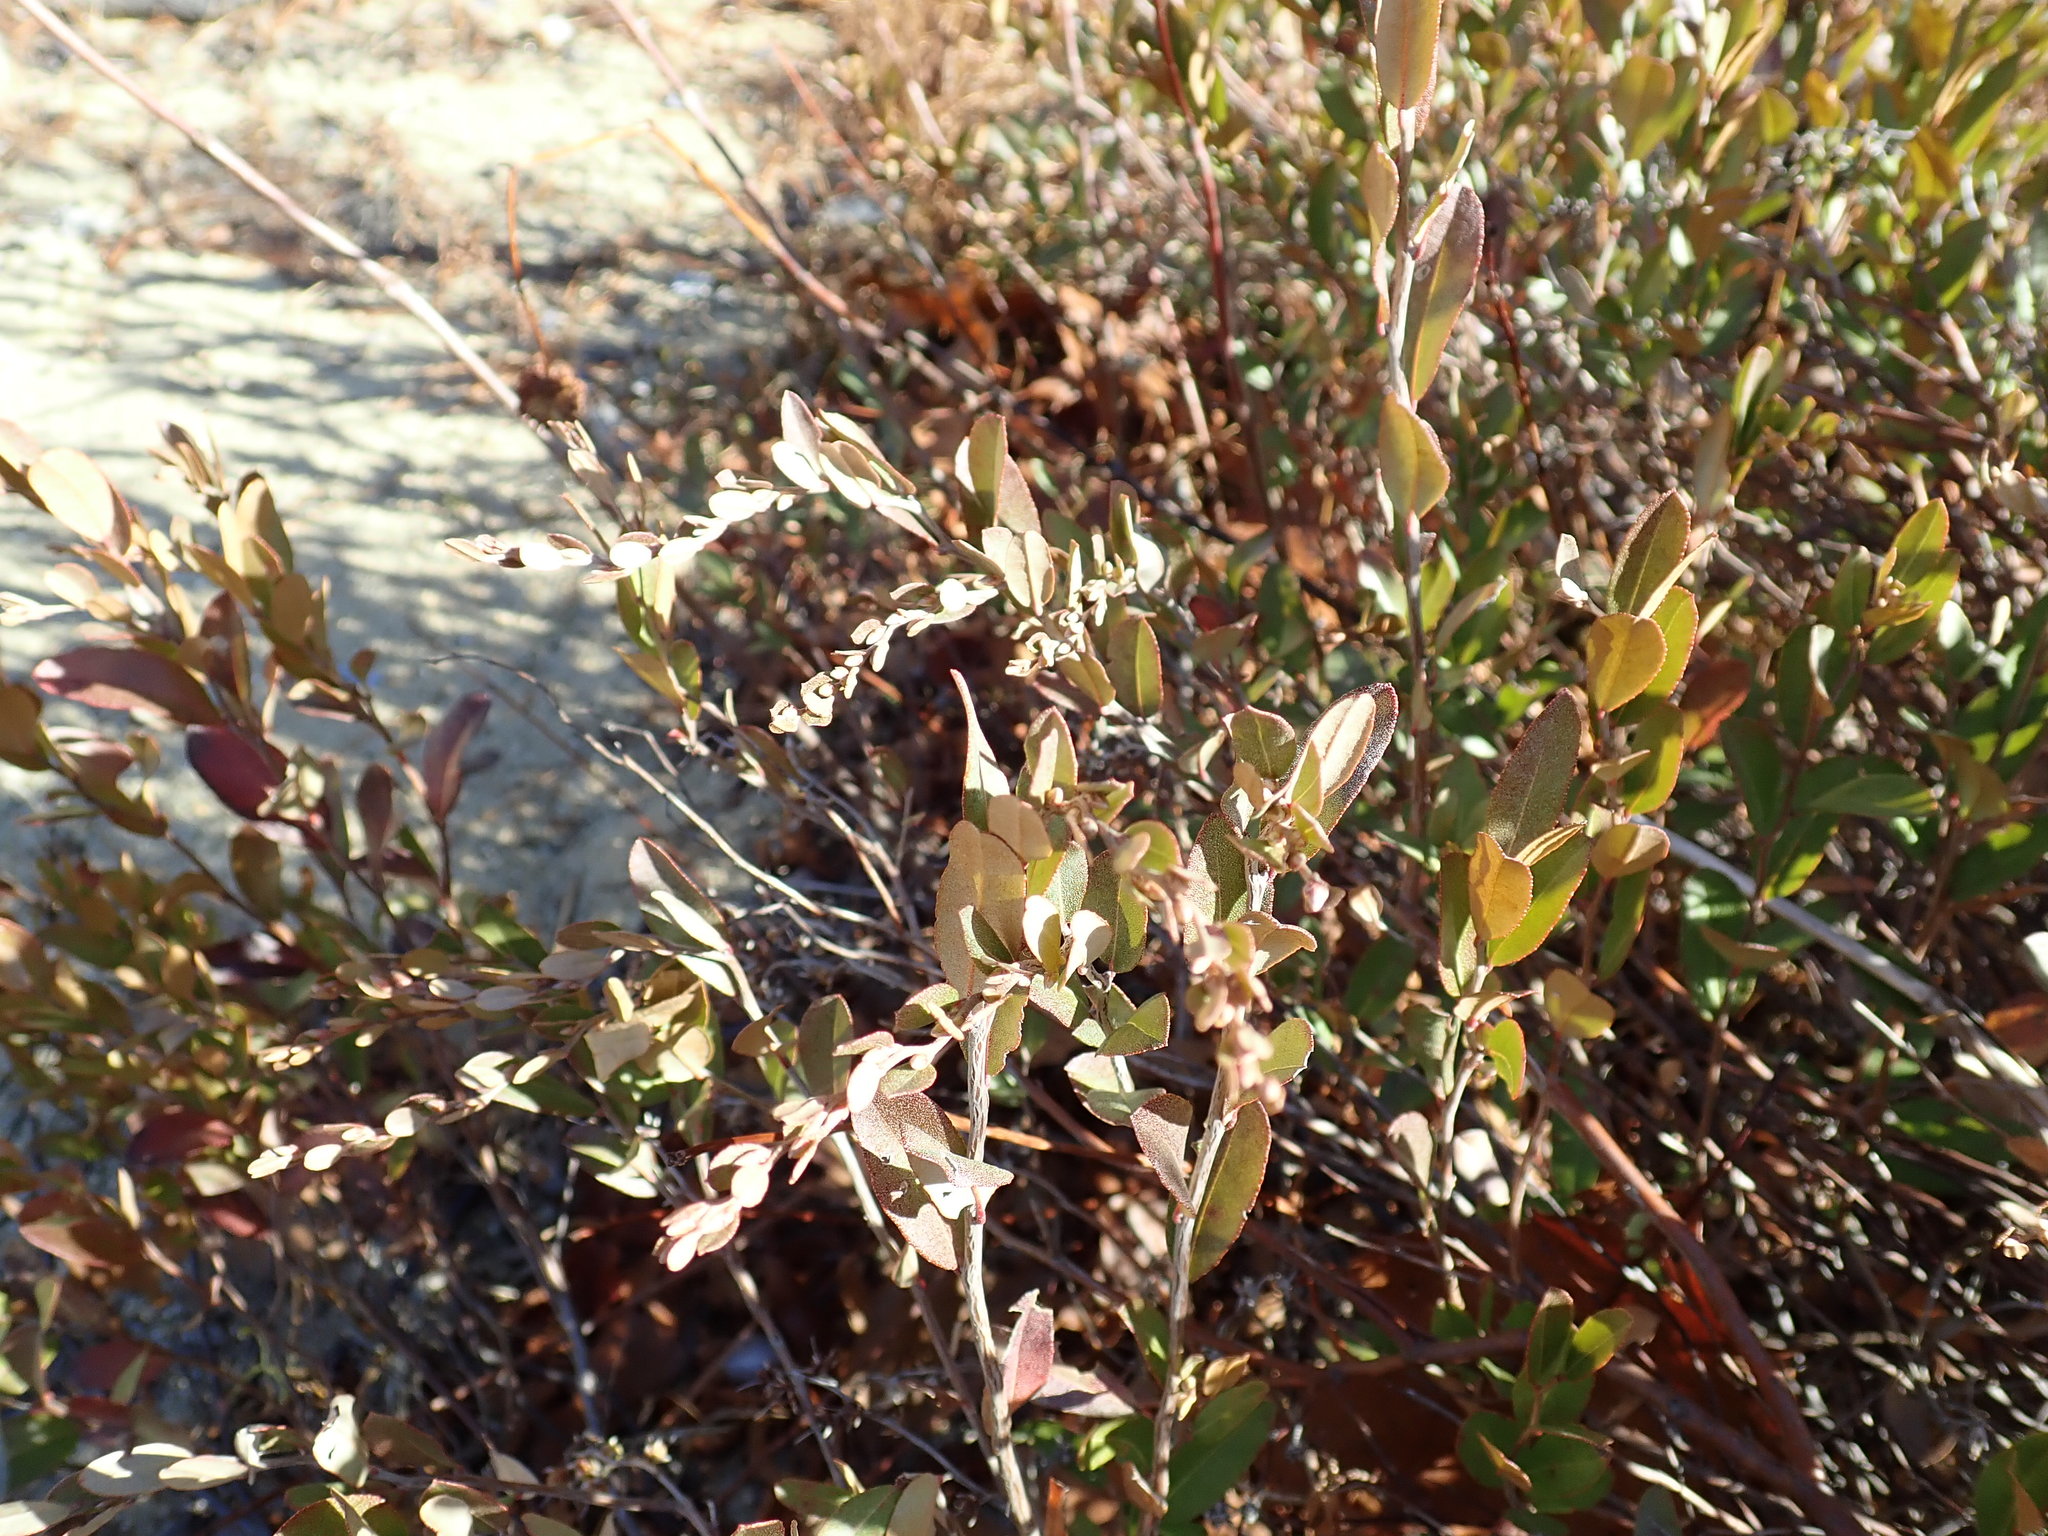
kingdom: Plantae
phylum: Tracheophyta
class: Magnoliopsida
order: Ericales
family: Ericaceae
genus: Chamaedaphne
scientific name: Chamaedaphne calyculata
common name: Leatherleaf
